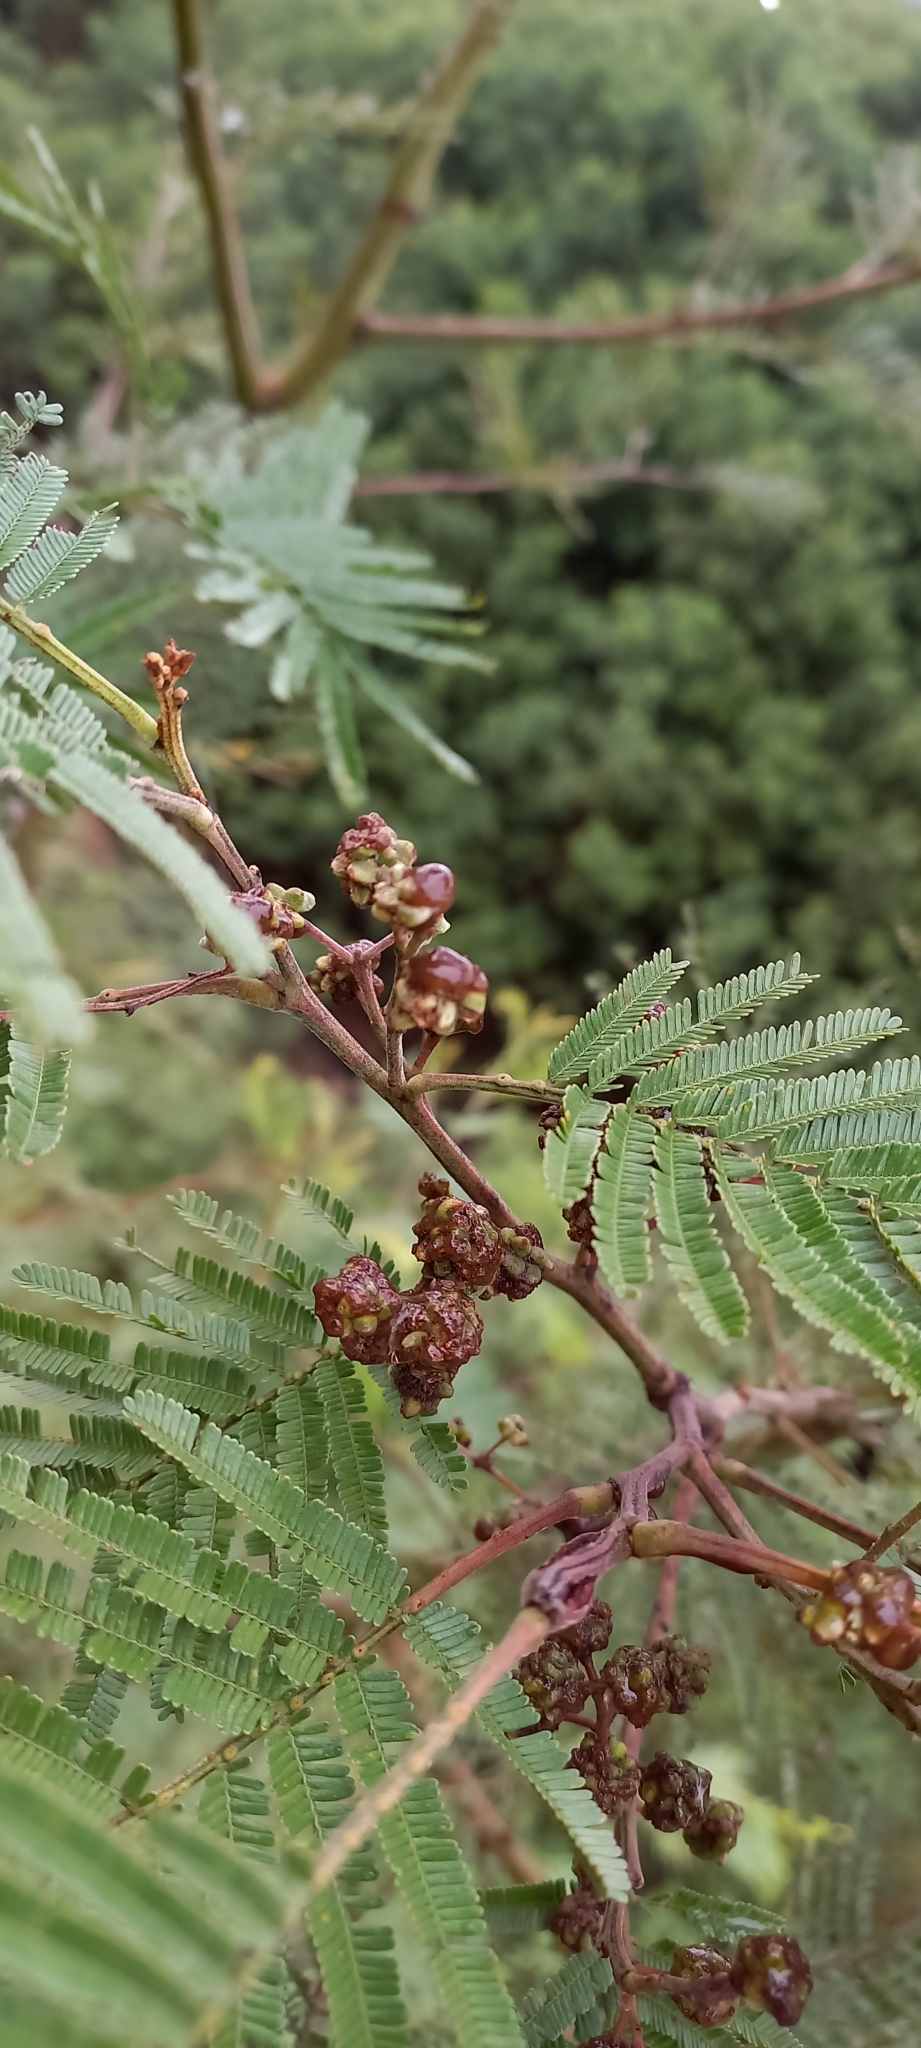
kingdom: Animalia
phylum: Arthropoda
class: Insecta
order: Diptera
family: Cecidomyiidae
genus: Dasineura
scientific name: Dasineura rubiformis
